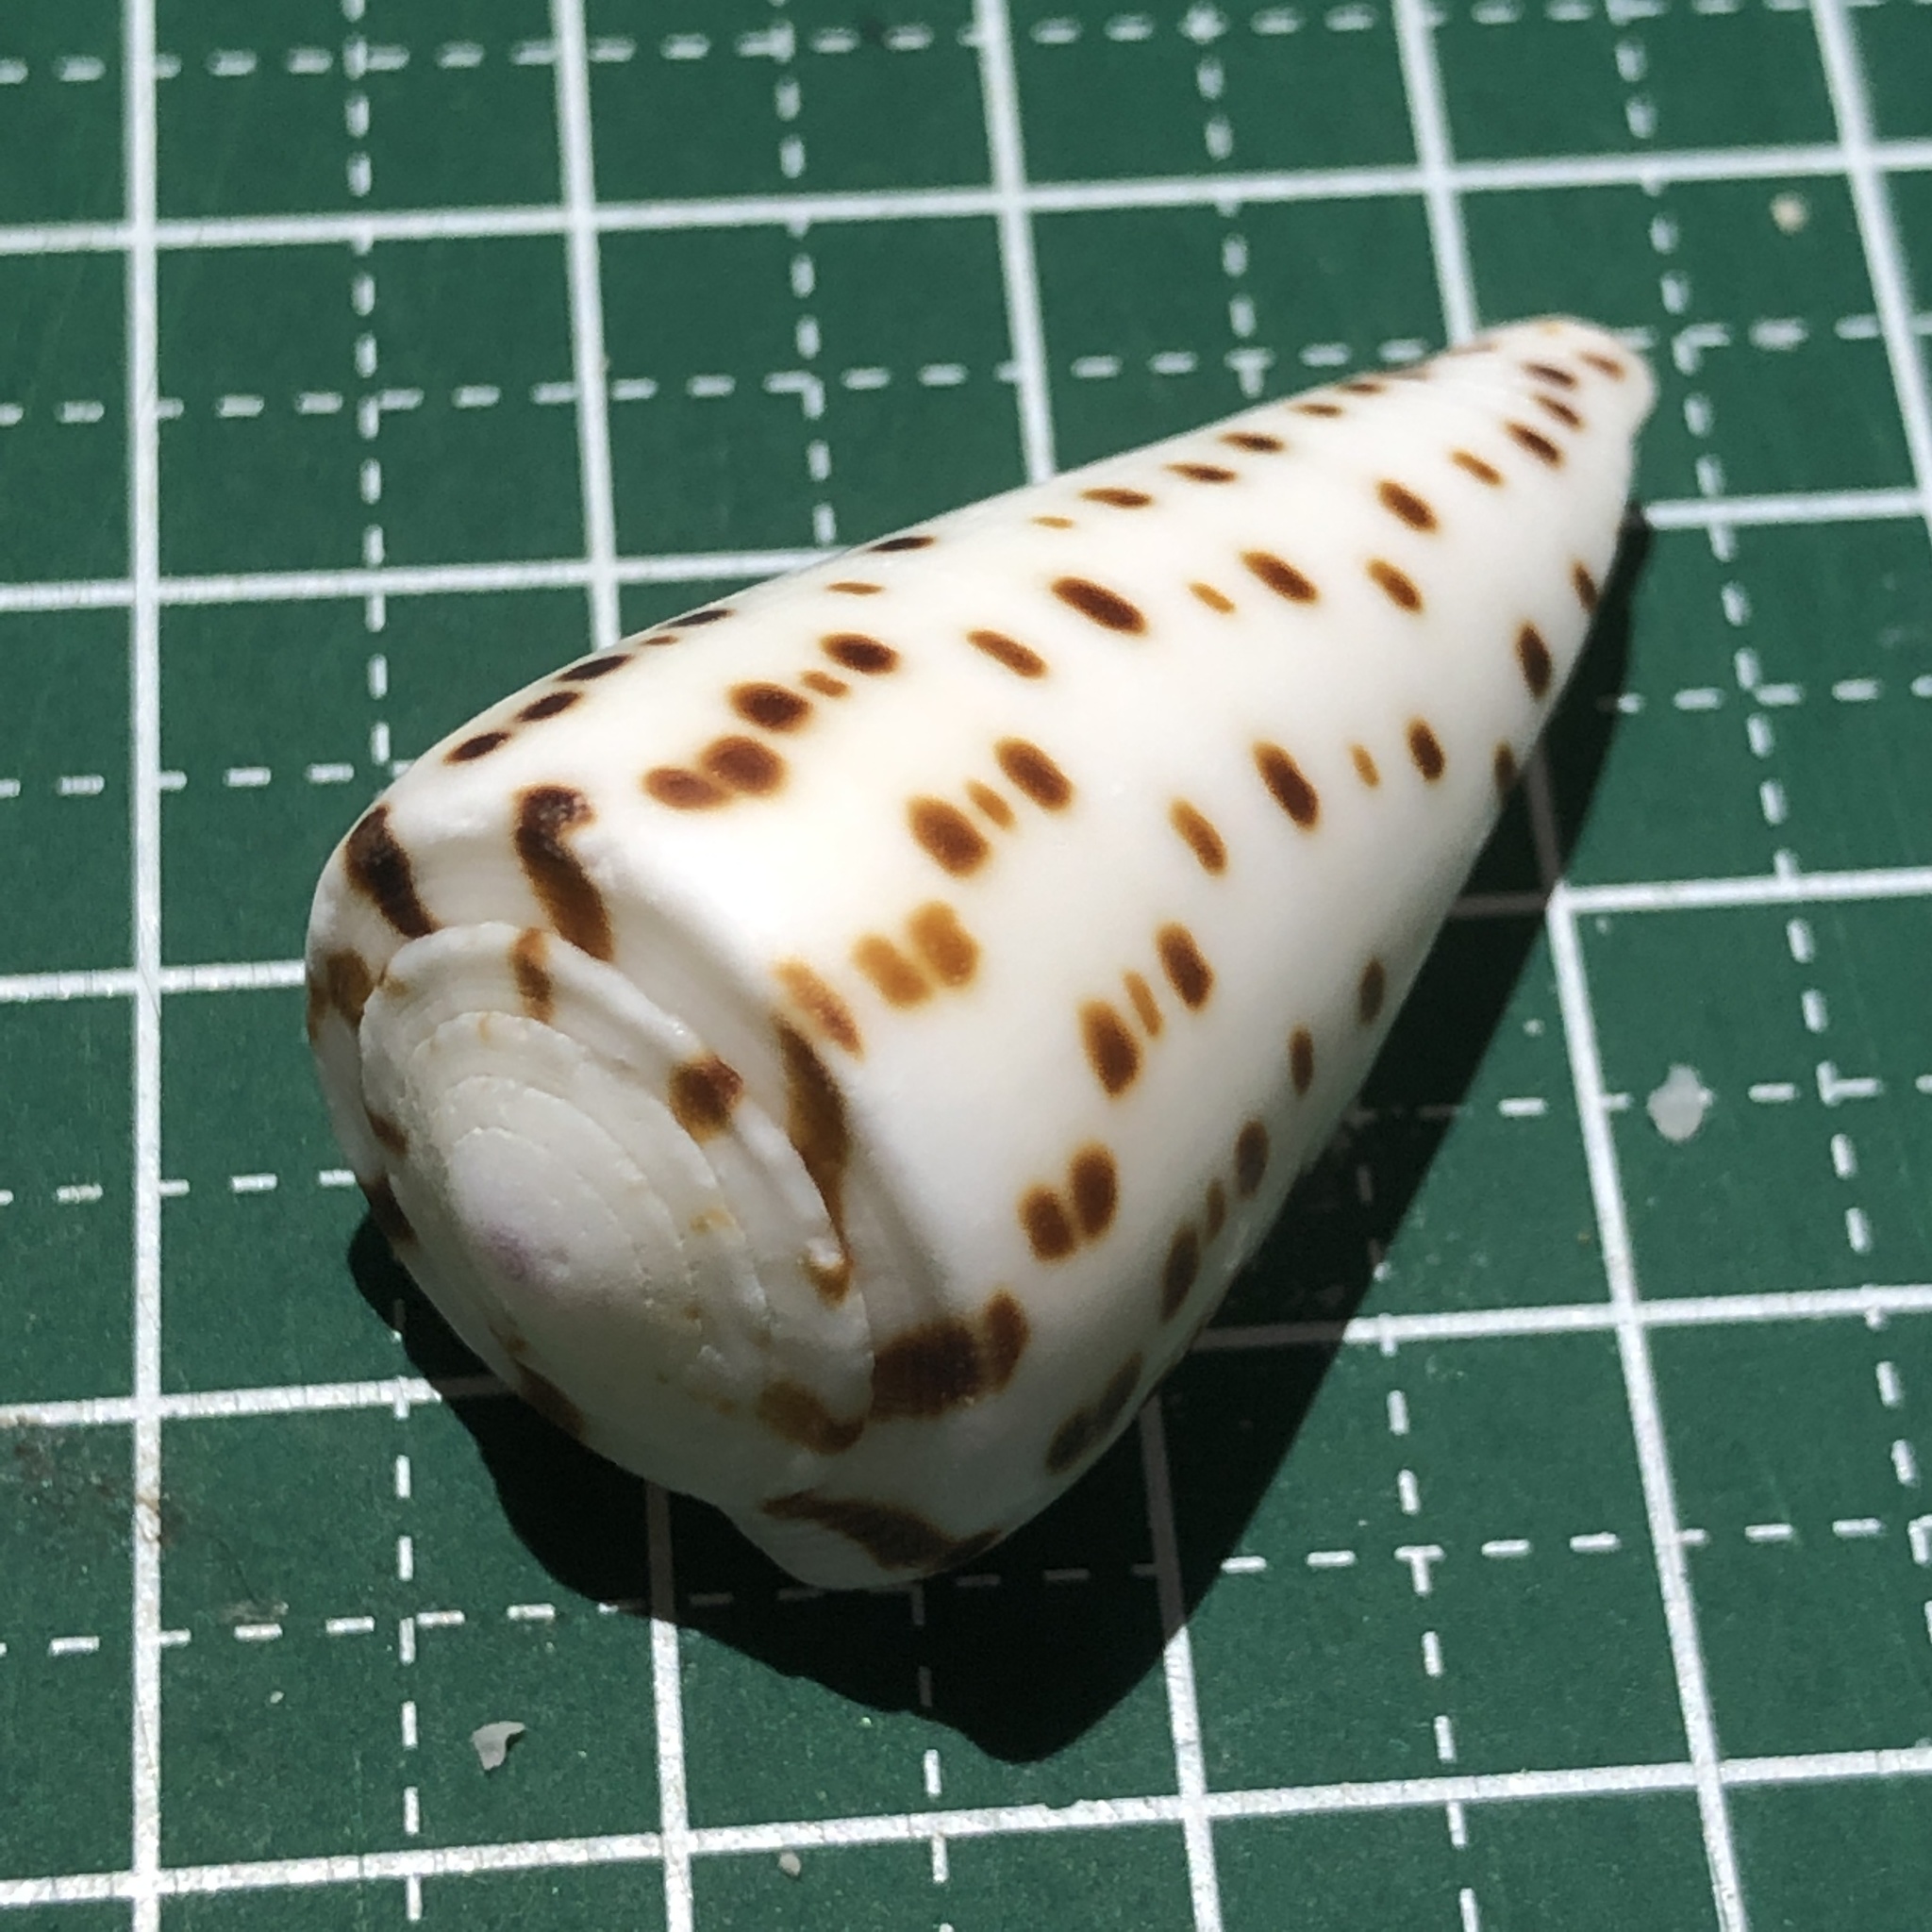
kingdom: Animalia
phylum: Mollusca
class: Gastropoda
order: Neogastropoda
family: Conidae
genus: Conus
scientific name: Conus leopardus
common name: Leopard cone
